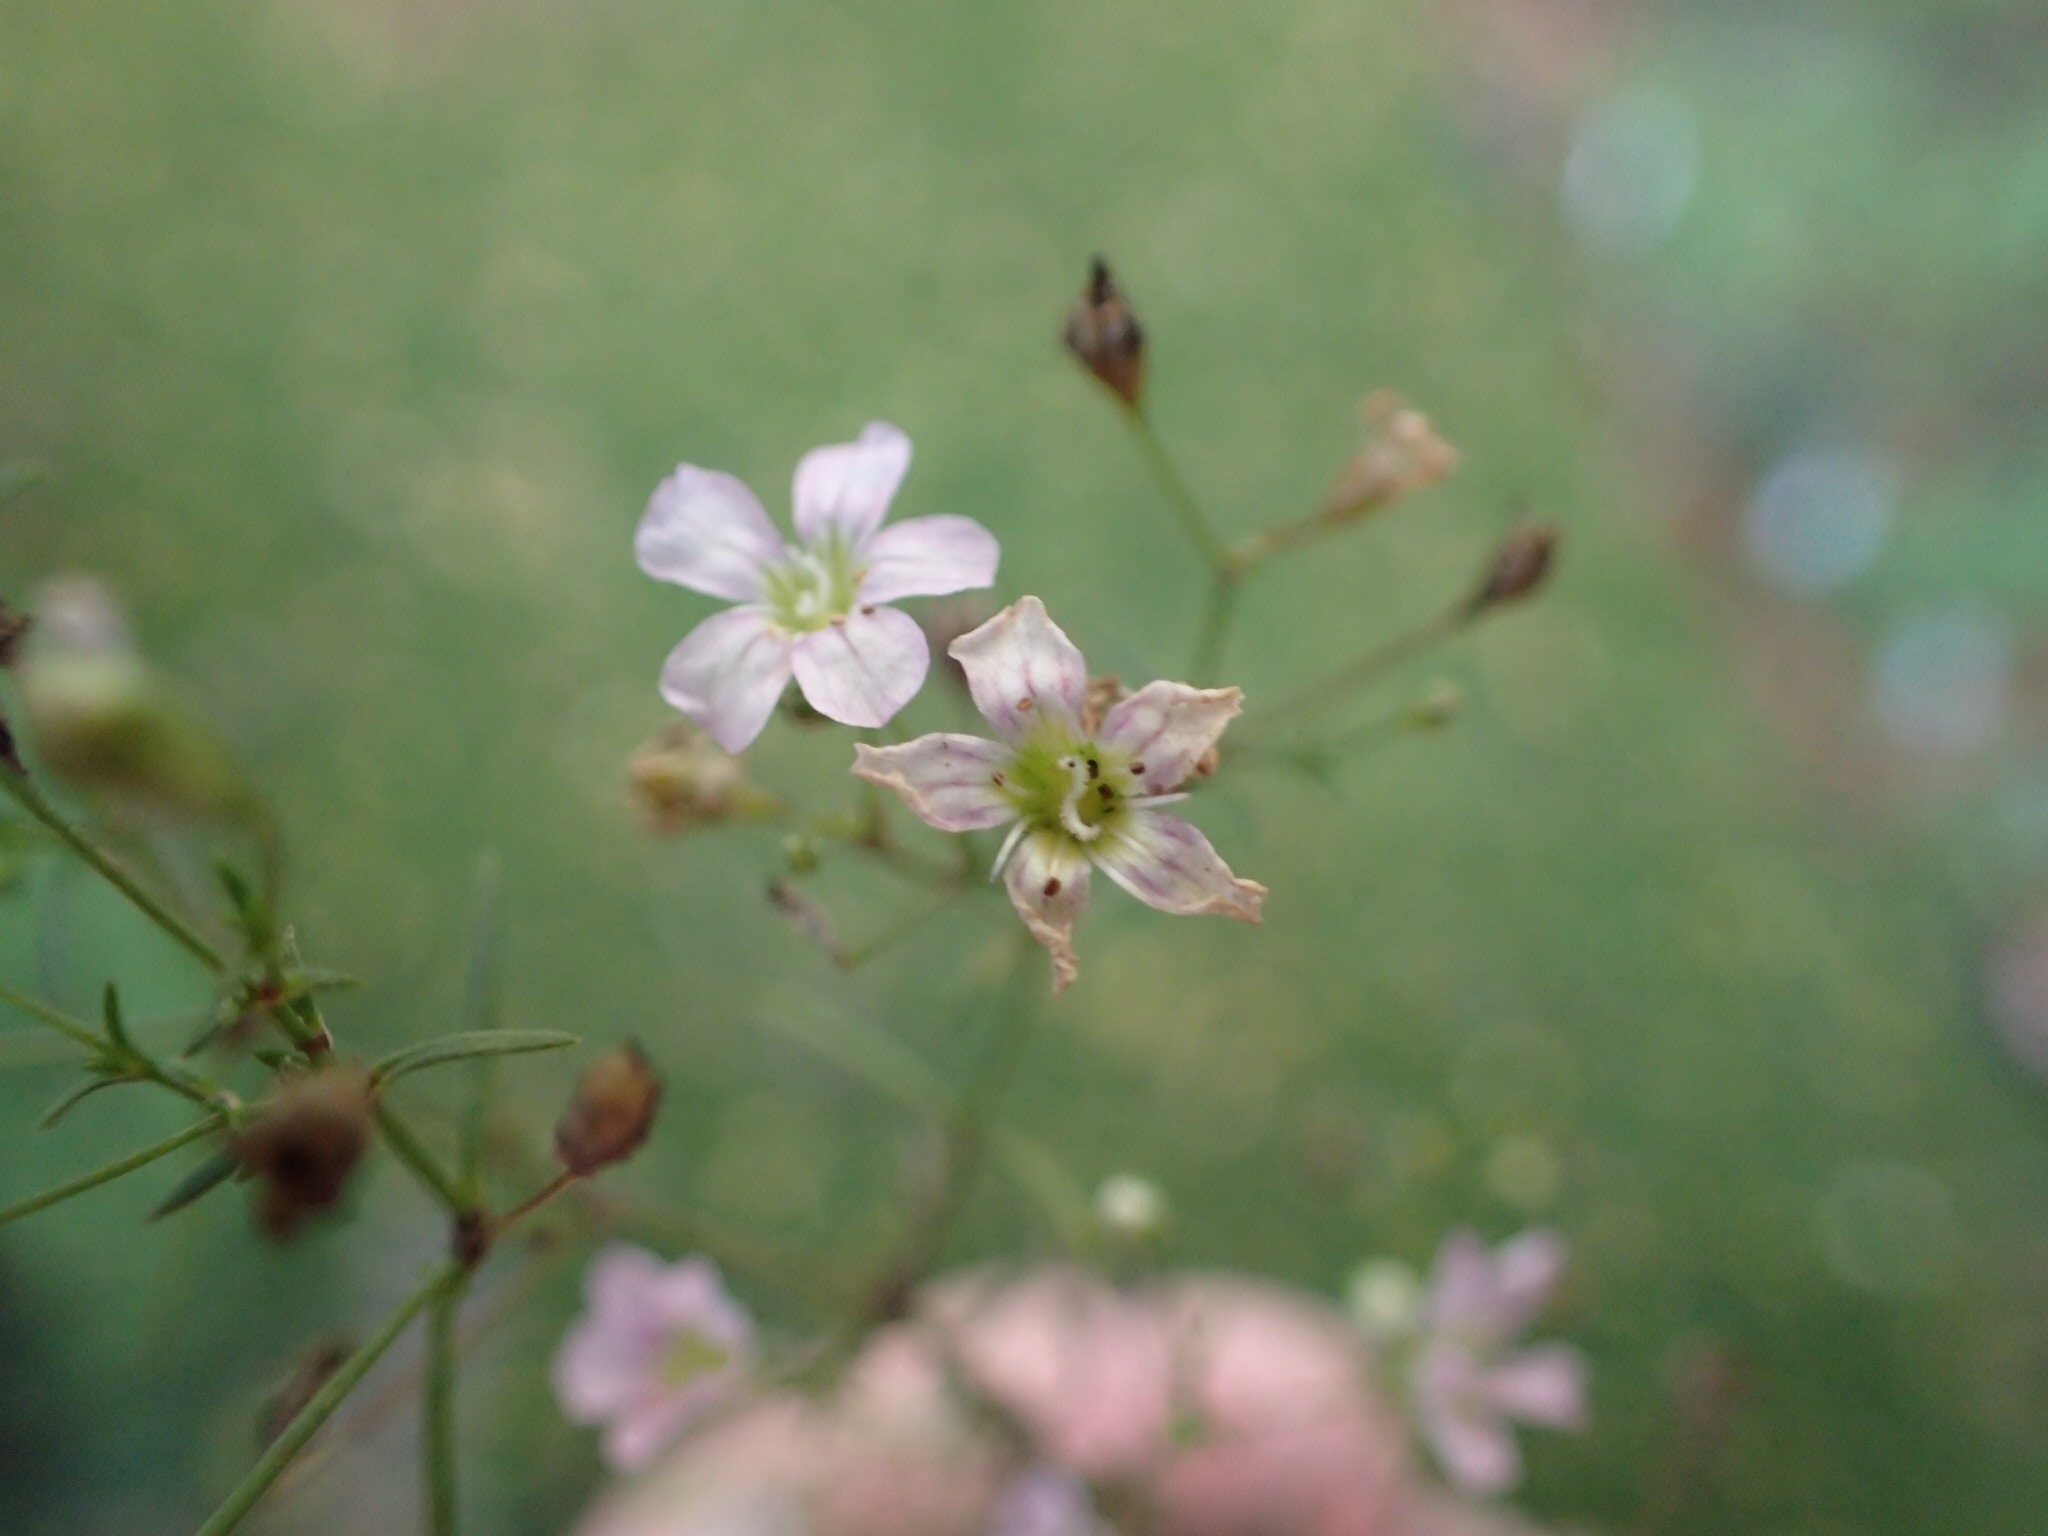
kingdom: Plantae
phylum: Tracheophyta
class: Magnoliopsida
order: Caryophyllales
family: Caryophyllaceae
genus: Psammophiliella
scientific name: Psammophiliella muralis
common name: Cushion baby's-breath
